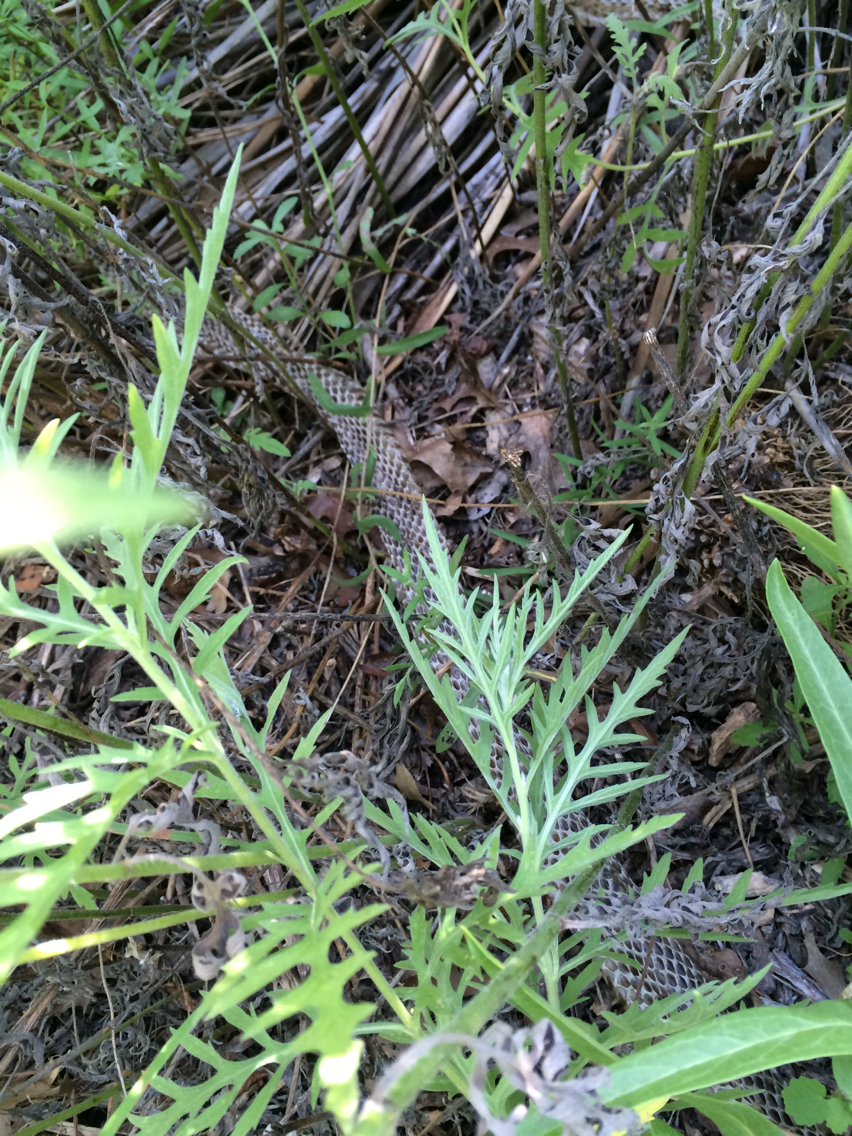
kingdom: Animalia
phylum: Chordata
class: Squamata
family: Colubridae
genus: Lampropeltis
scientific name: Lampropeltis holbrooki
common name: Speckled kingsnake
